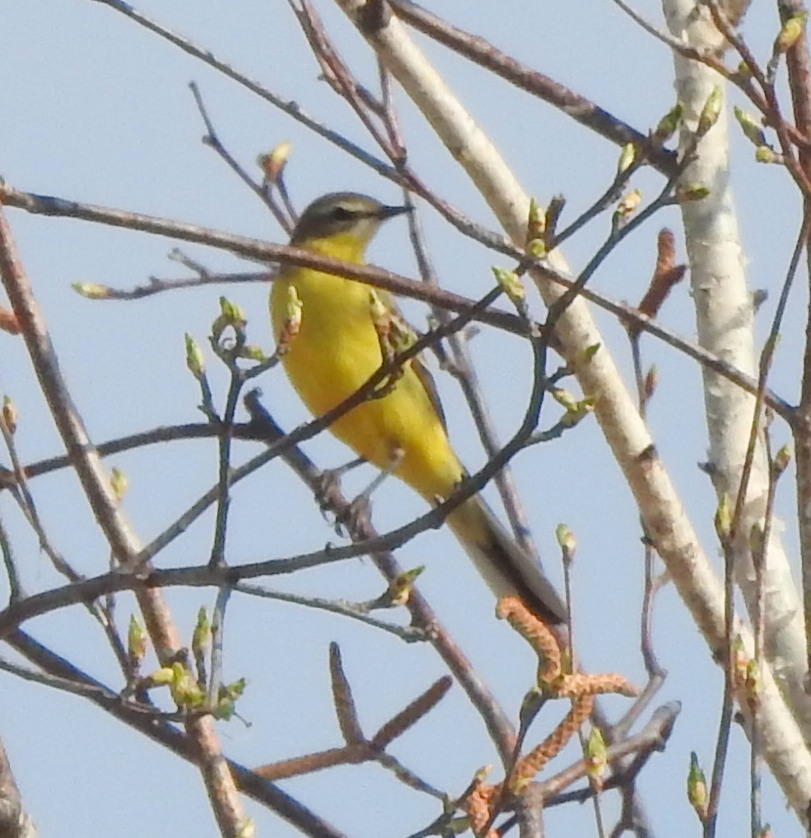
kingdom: Animalia
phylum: Chordata
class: Aves
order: Passeriformes
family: Motacillidae
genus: Motacilla
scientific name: Motacilla tschutschensis
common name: Eastern yellow wagtail
